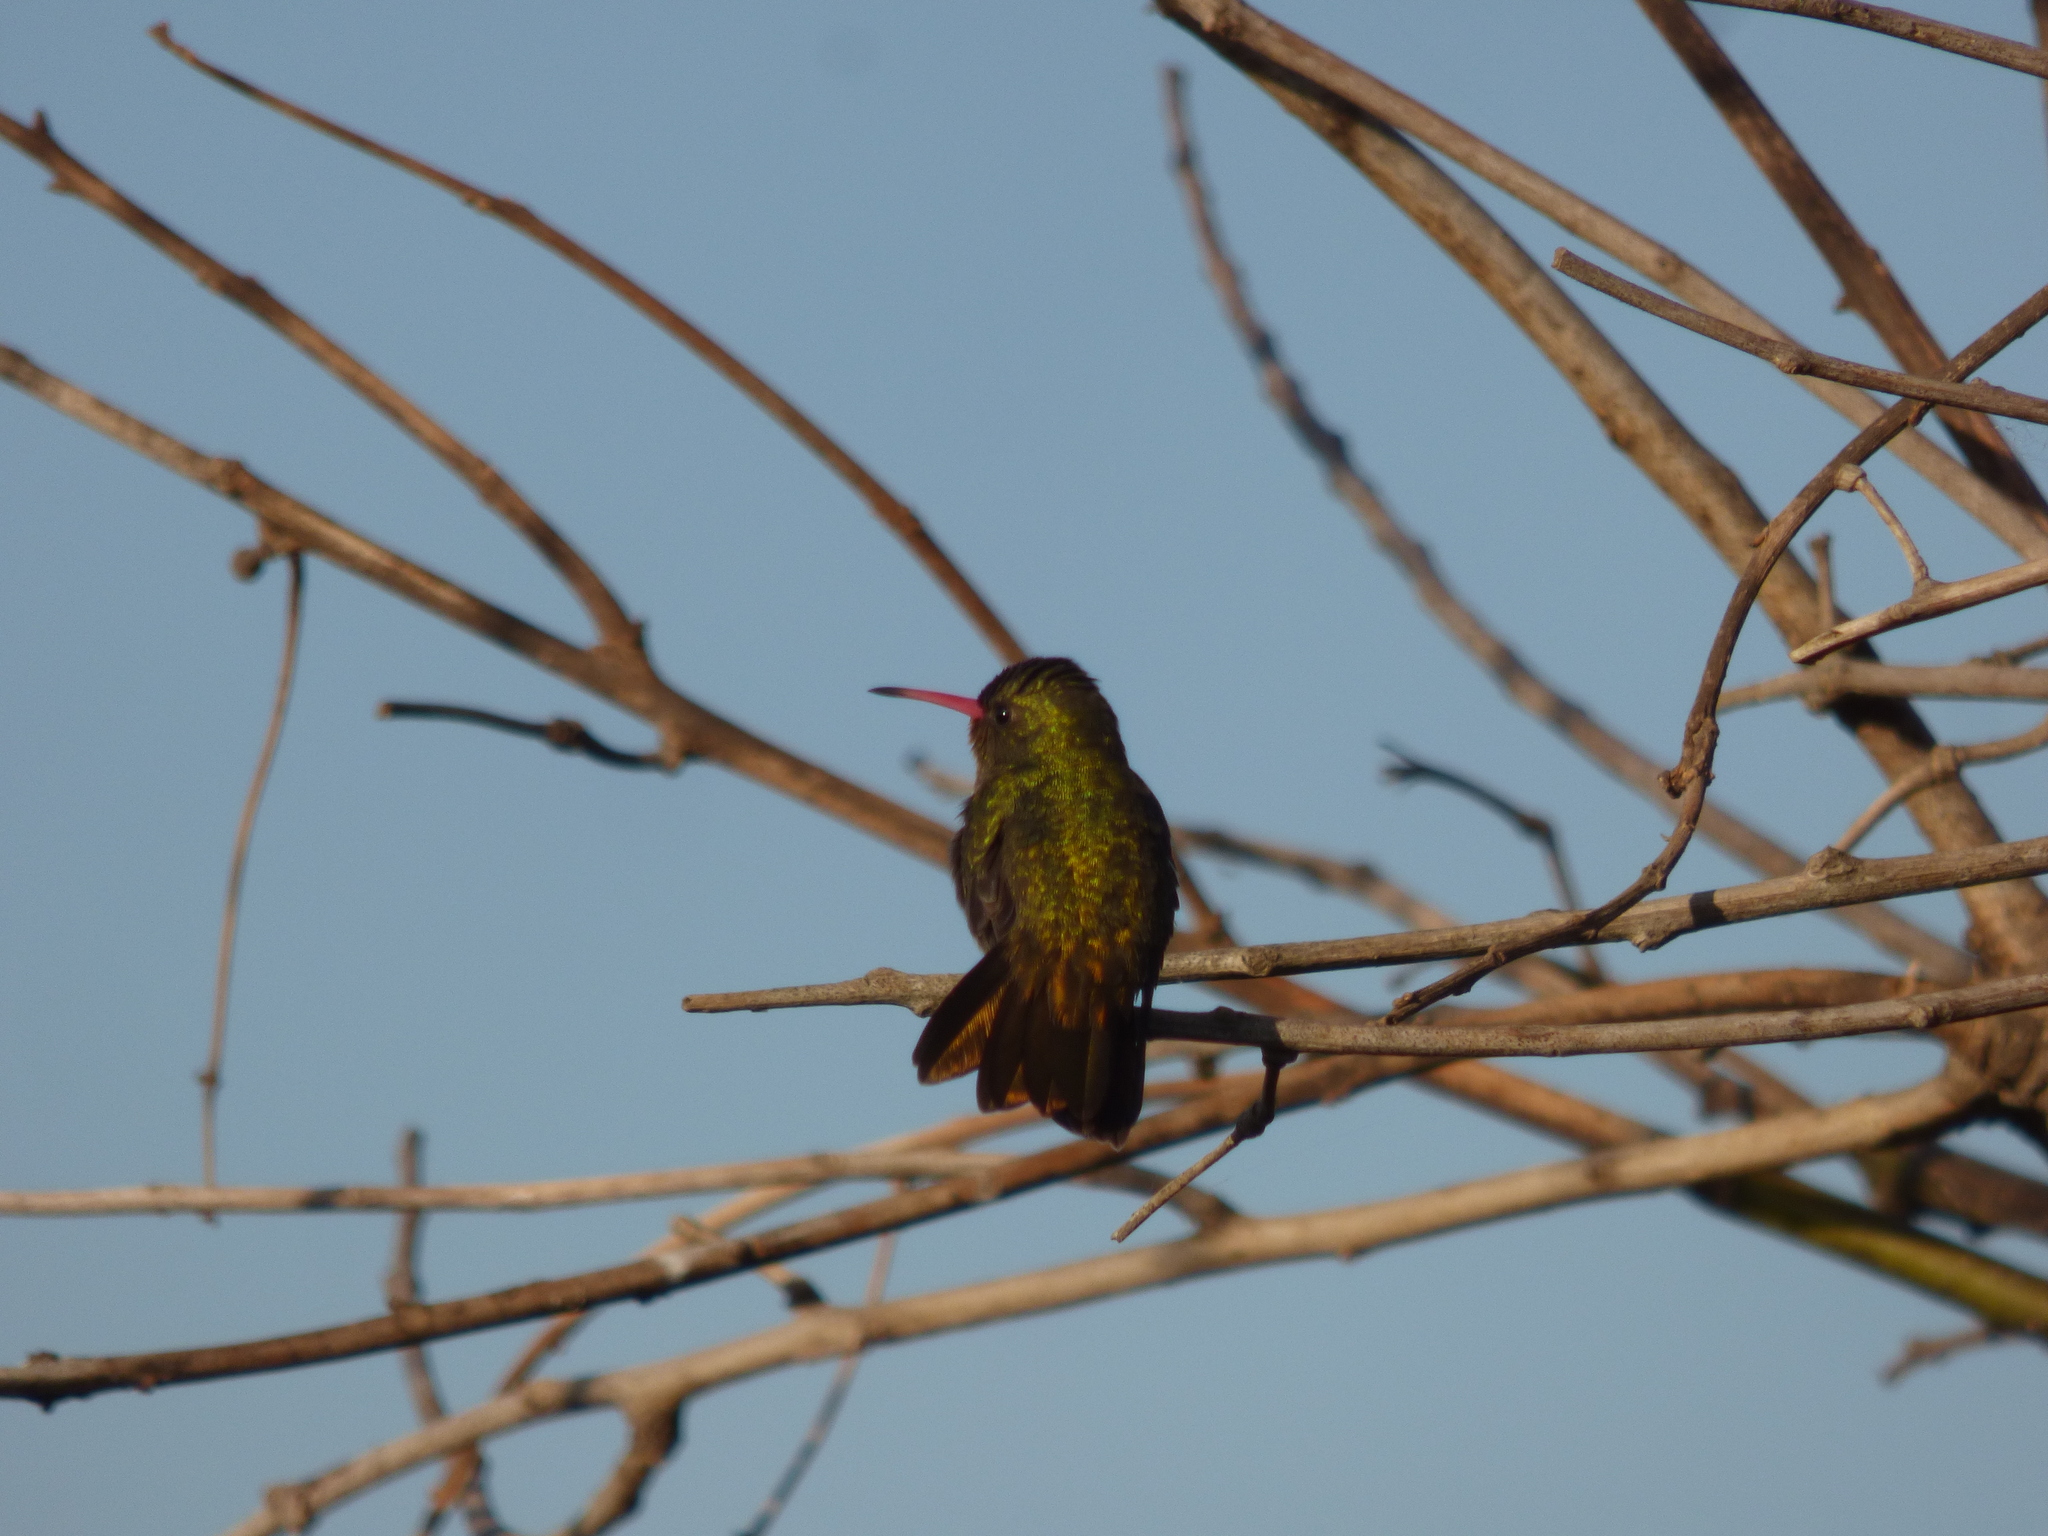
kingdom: Animalia
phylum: Chordata
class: Aves
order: Apodiformes
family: Trochilidae
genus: Hylocharis
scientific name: Hylocharis chrysura
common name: Gilded sapphire
